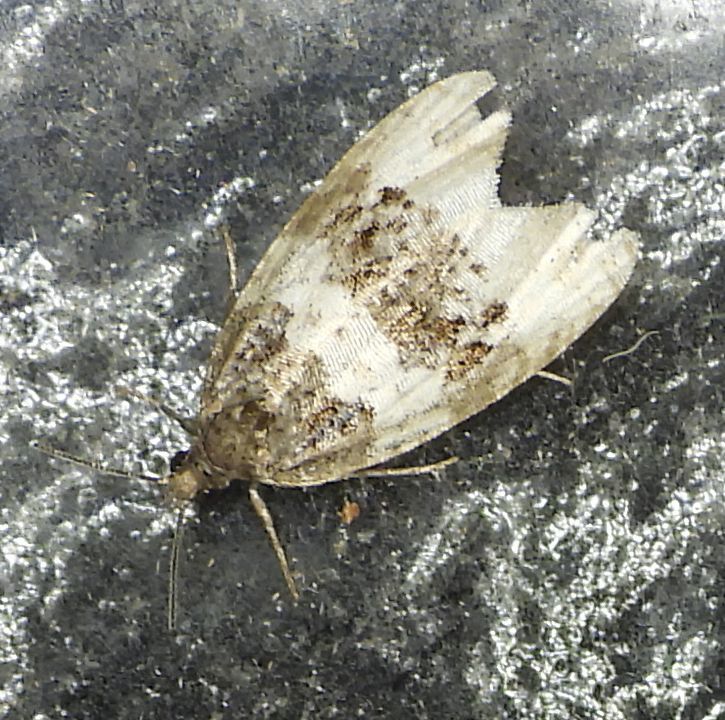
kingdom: Animalia
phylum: Arthropoda
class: Insecta
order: Lepidoptera
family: Tortricidae
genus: Olethreutes
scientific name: Olethreutes bipartitana
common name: Divided olethreutes moth
